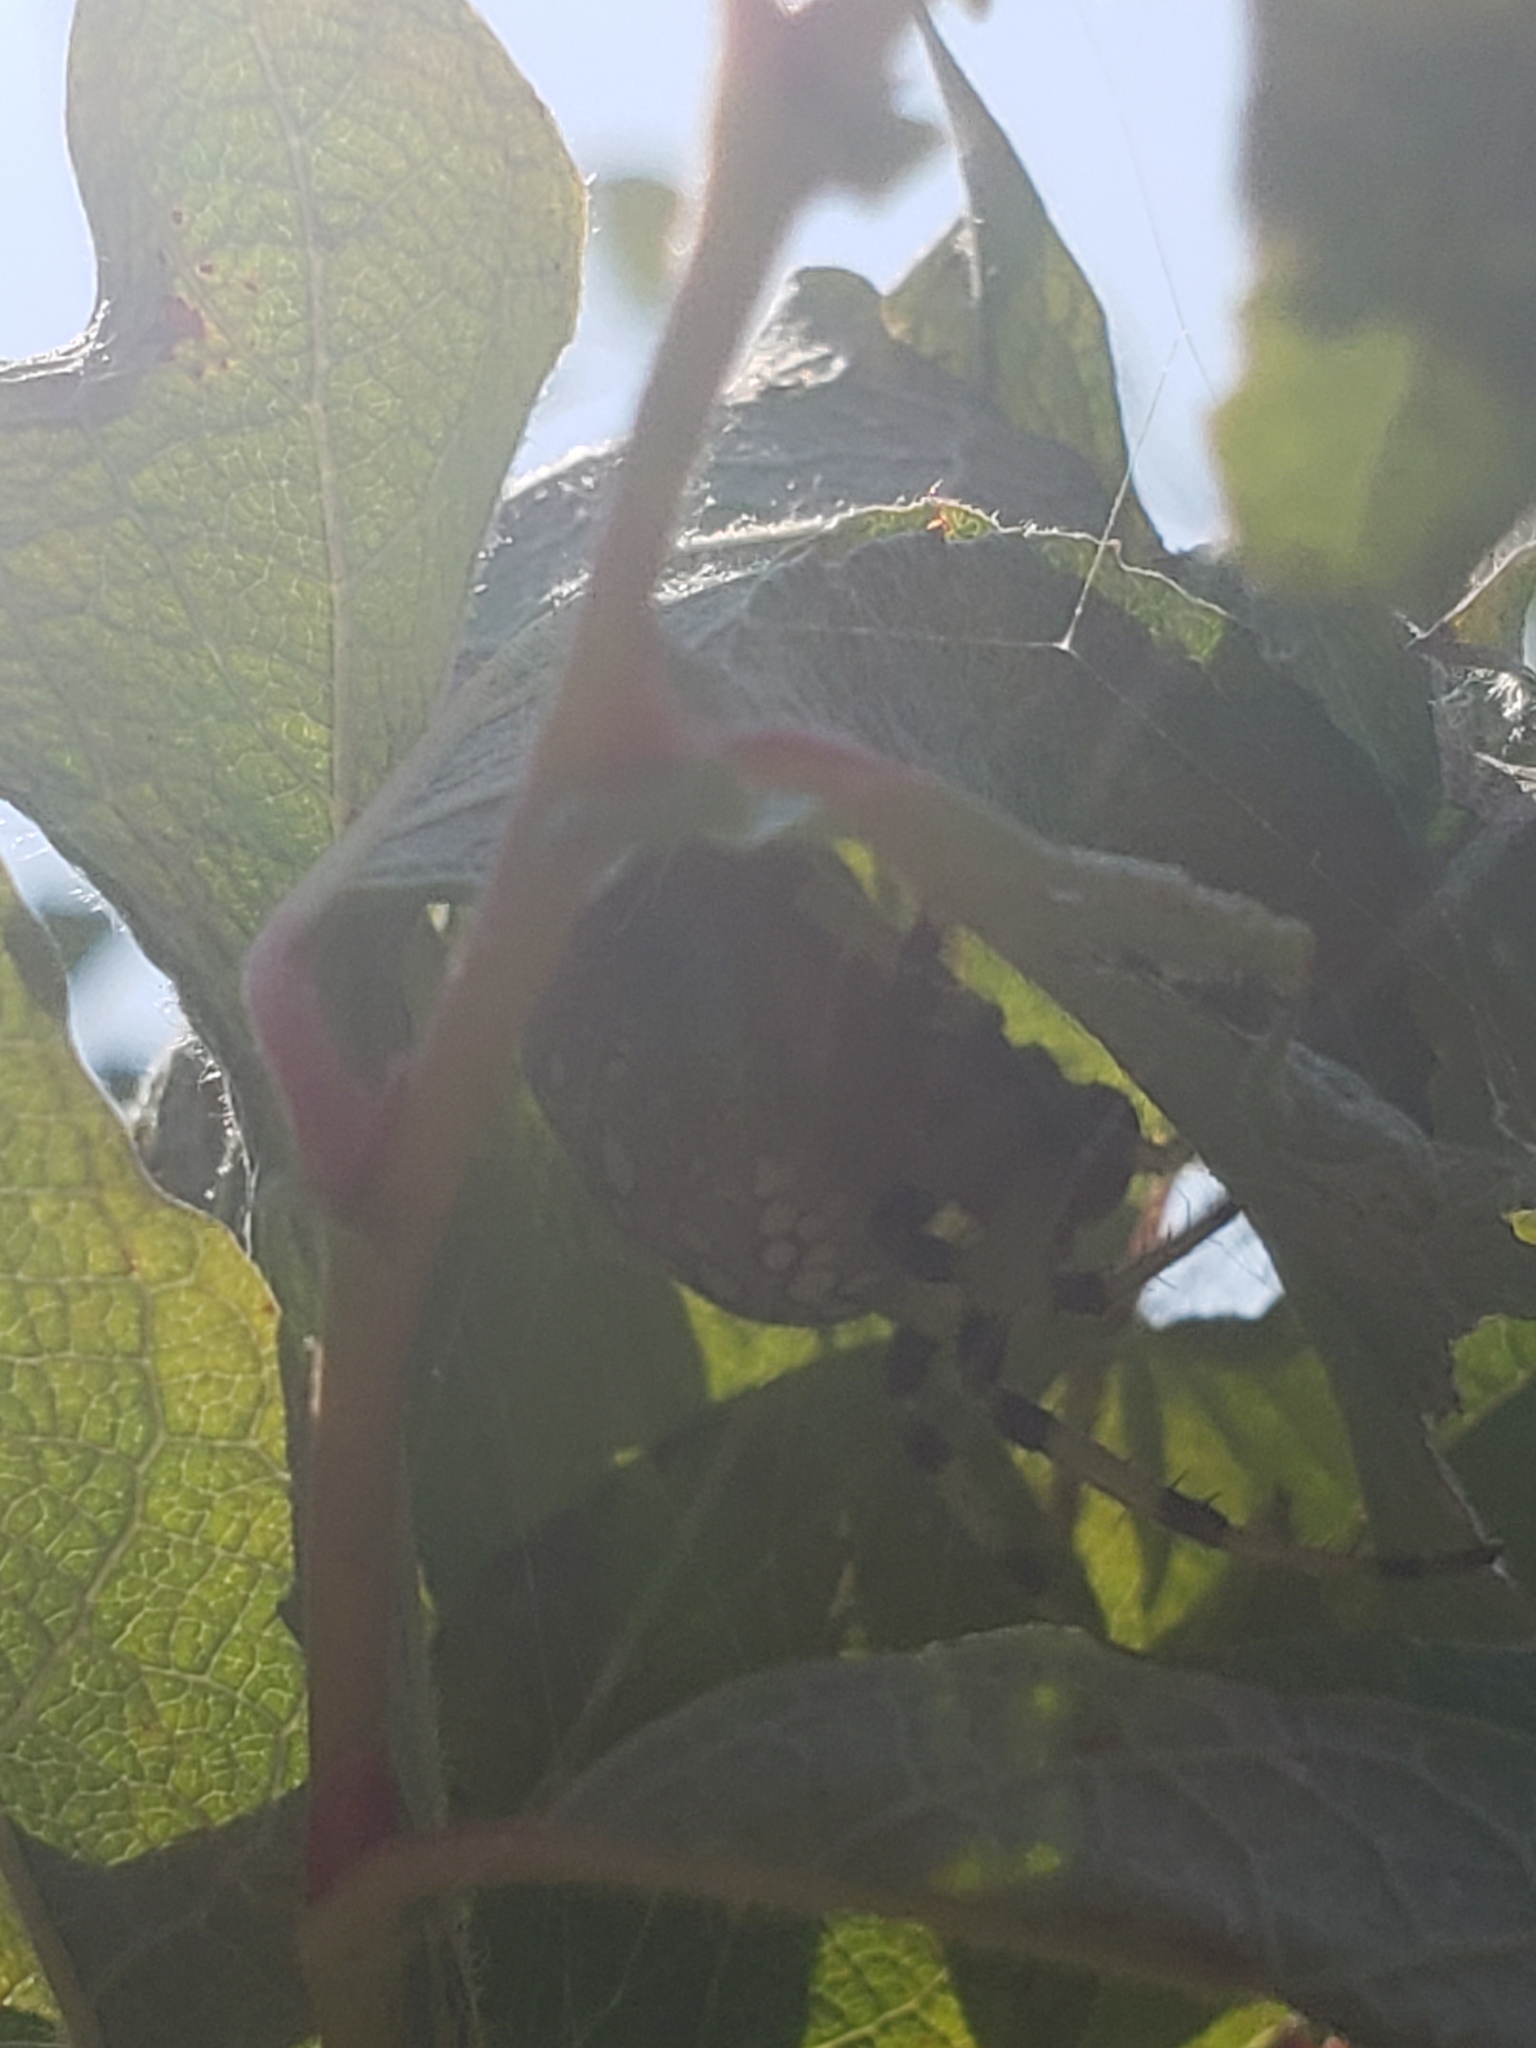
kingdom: Animalia
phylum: Arthropoda
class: Arachnida
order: Araneae
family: Araneidae
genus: Araneus
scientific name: Araneus trifolium
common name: Shamrock orbweaver
